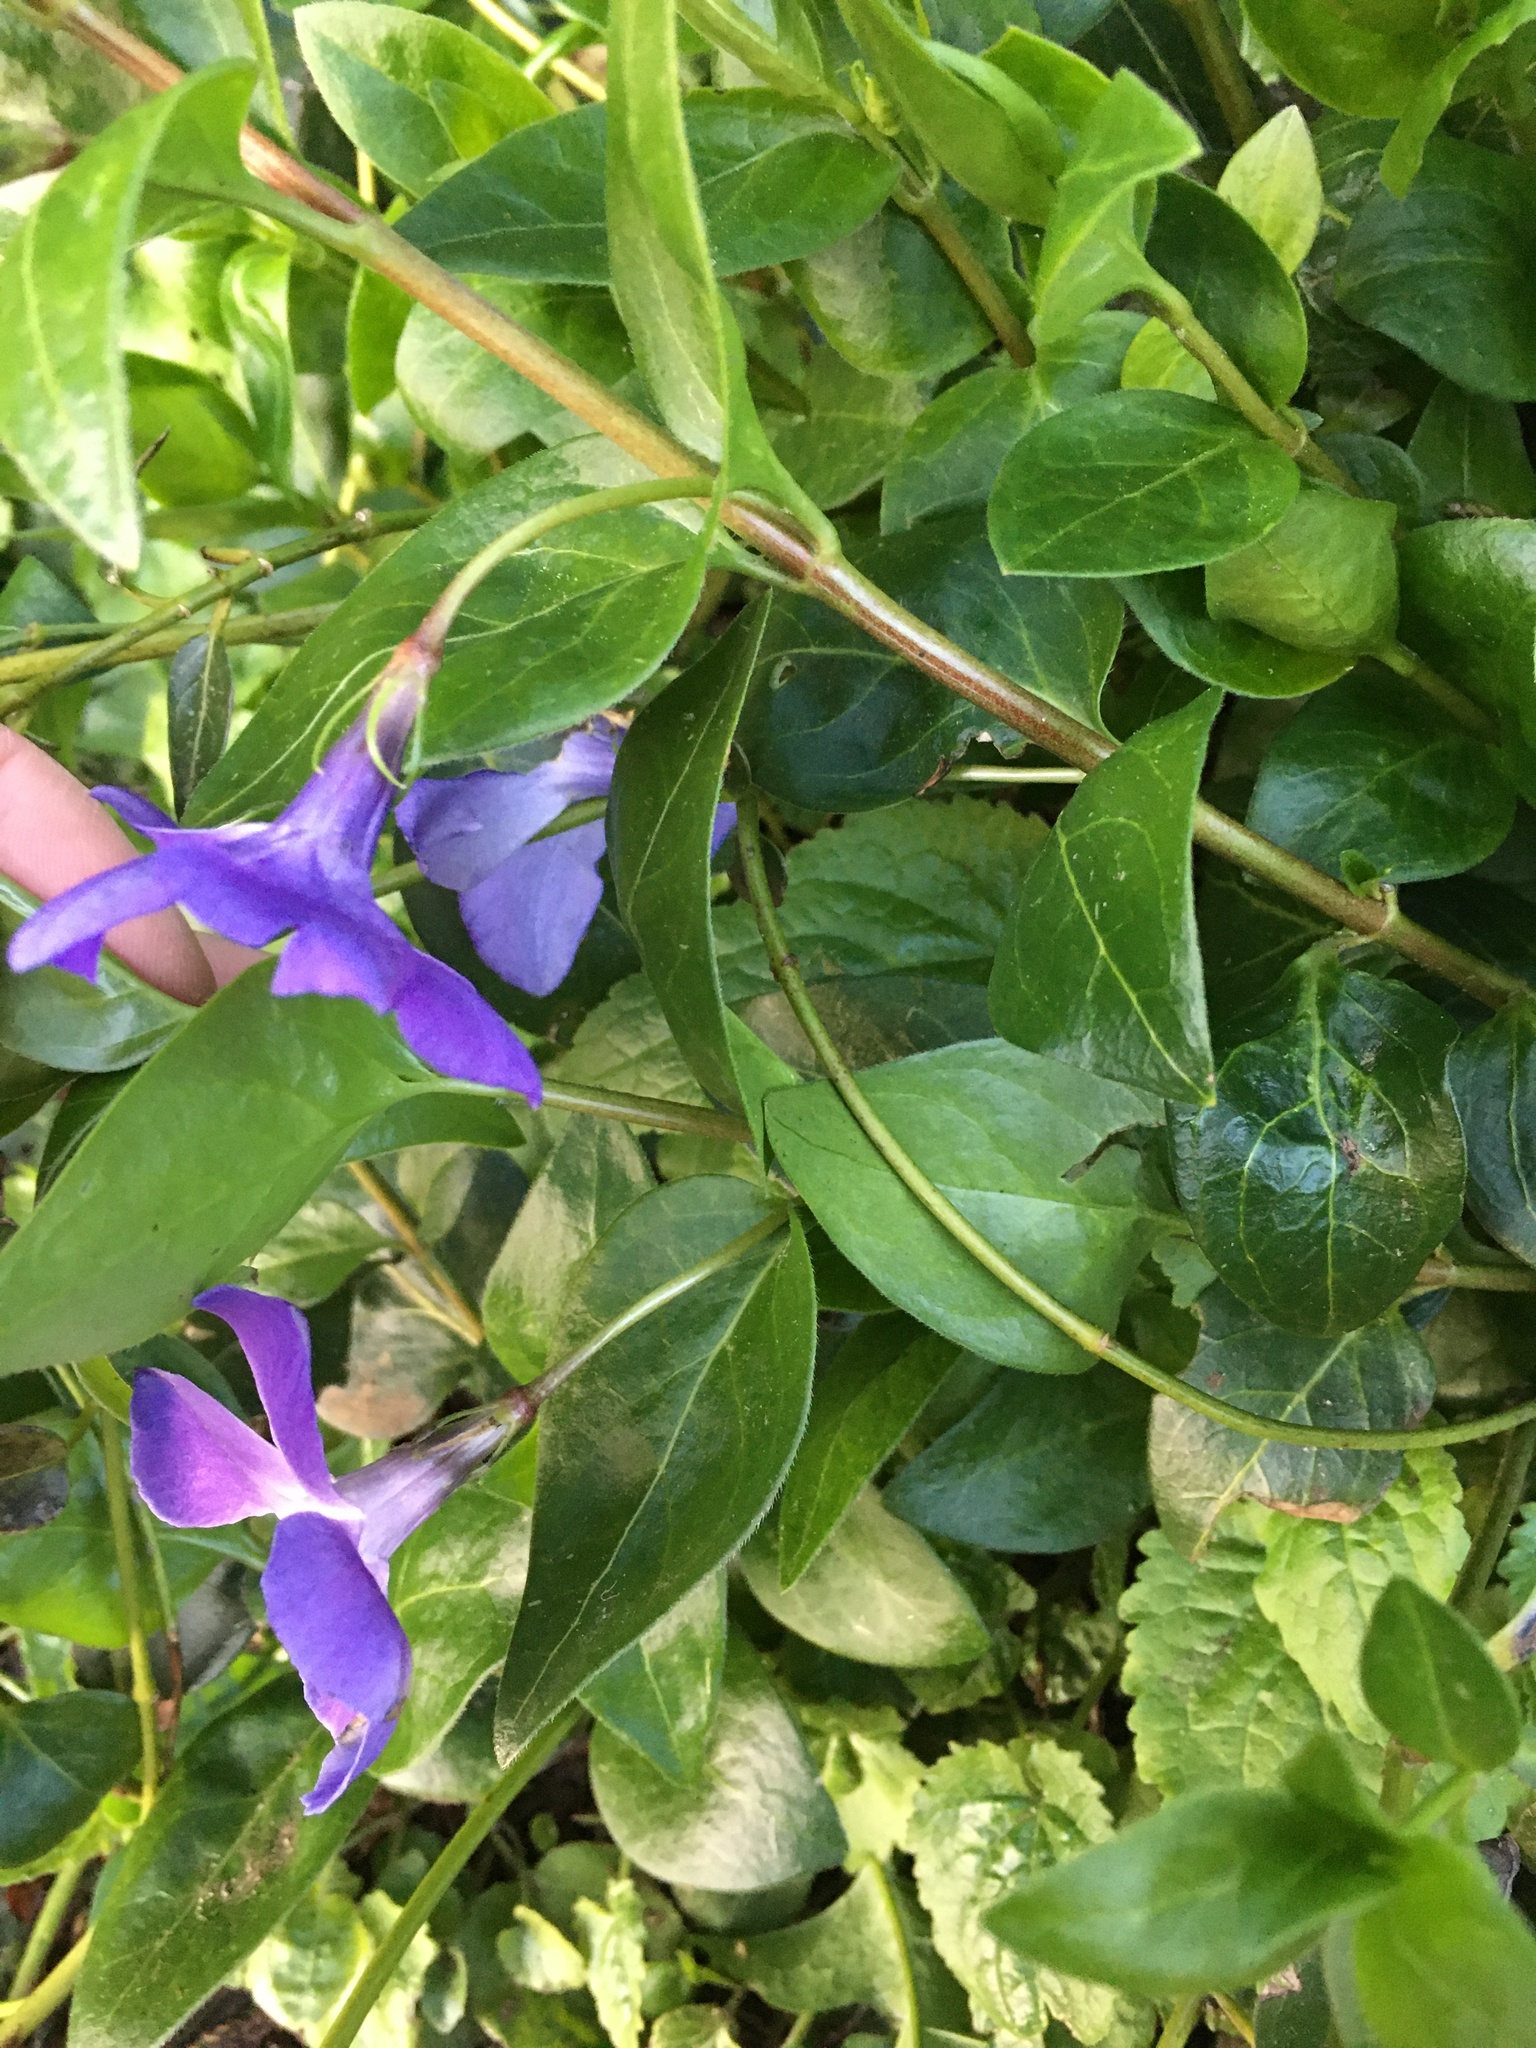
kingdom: Plantae
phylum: Tracheophyta
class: Magnoliopsida
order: Gentianales
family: Apocynaceae
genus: Vinca
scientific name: Vinca major
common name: Greater periwinkle
